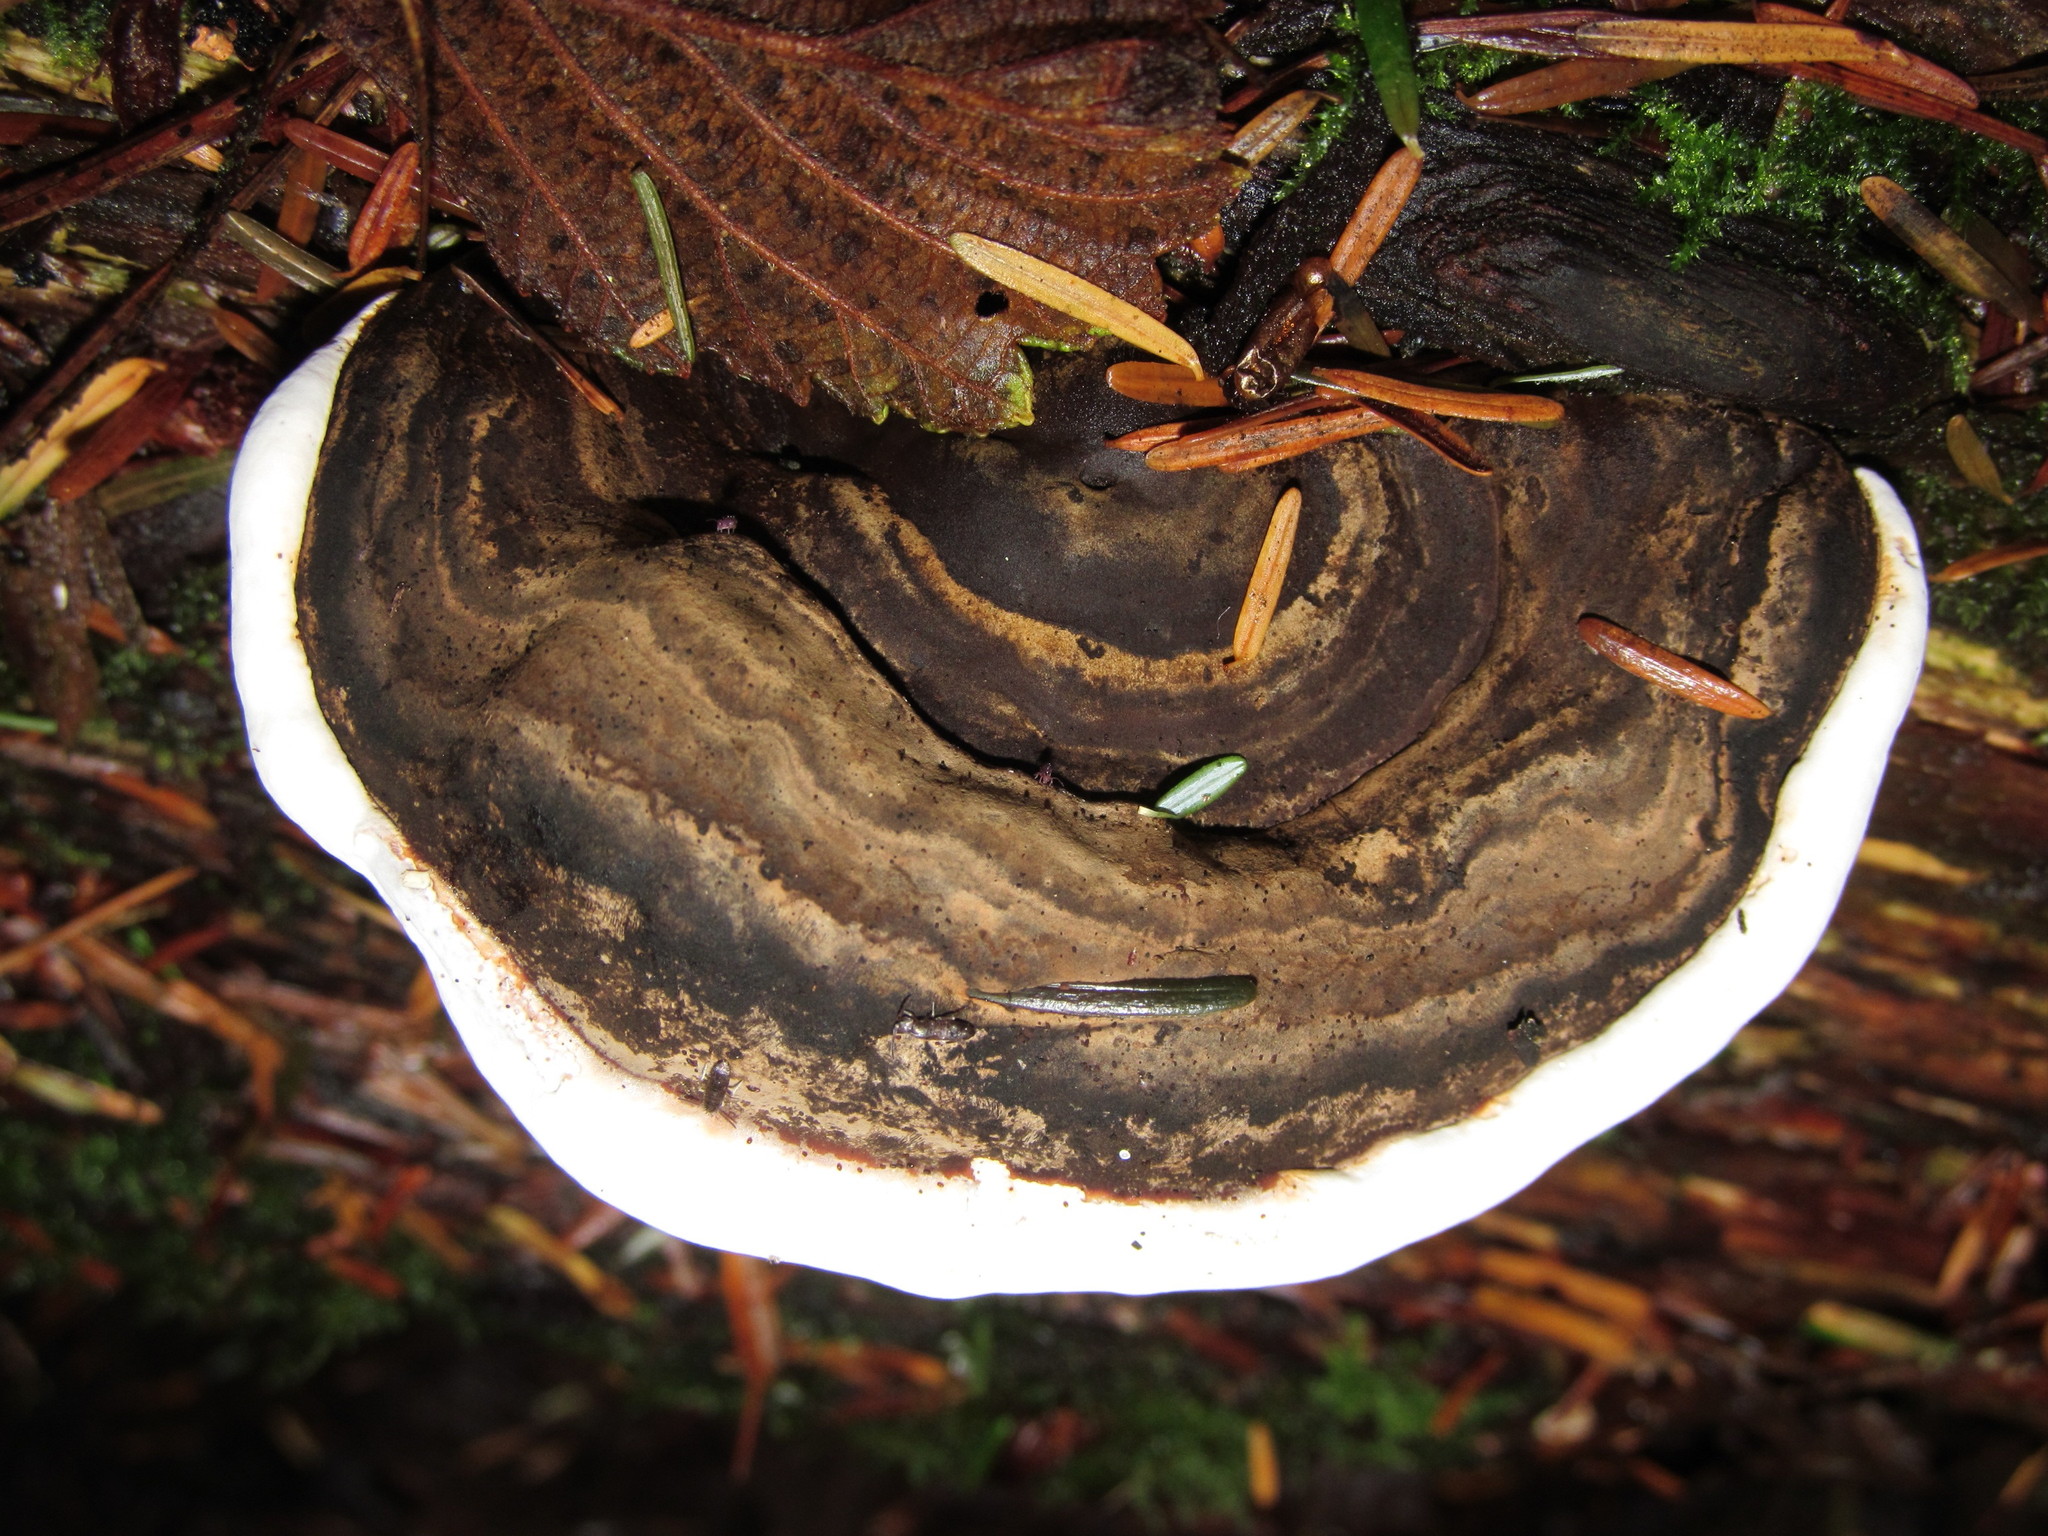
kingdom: Fungi
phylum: Basidiomycota
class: Agaricomycetes
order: Polyporales
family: Polyporaceae
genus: Ganoderma
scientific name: Ganoderma applanatum
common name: Artist's bracket
